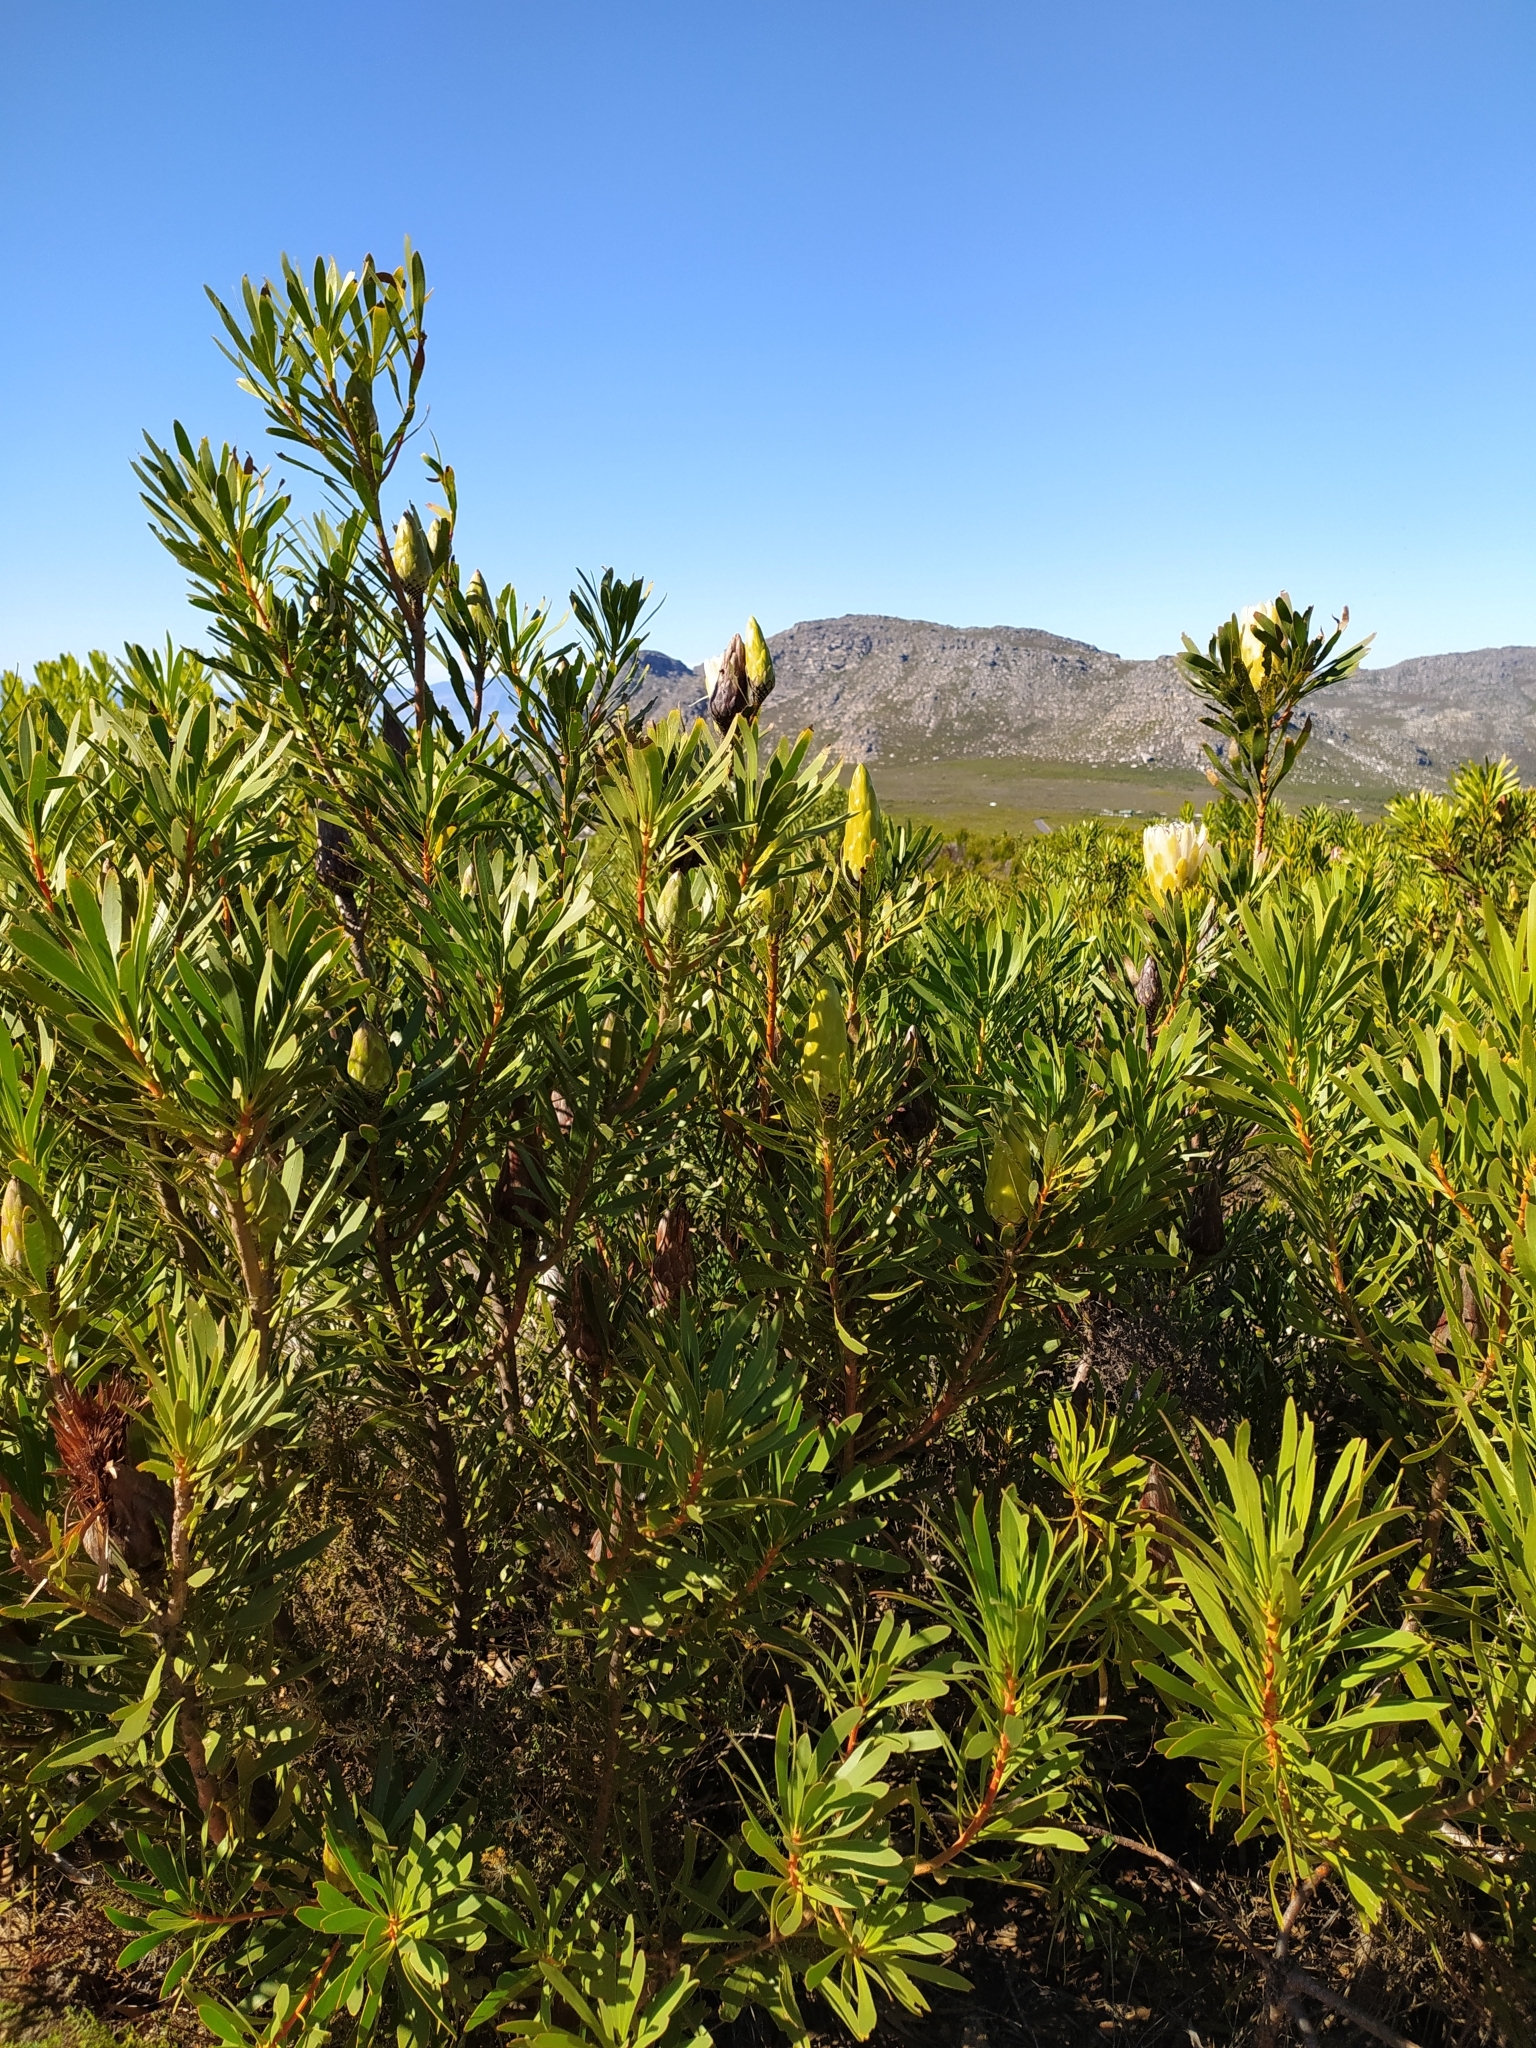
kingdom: Plantae
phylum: Tracheophyta
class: Magnoliopsida
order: Proteales
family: Proteaceae
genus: Protea
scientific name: Protea repens
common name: Sugarbush
